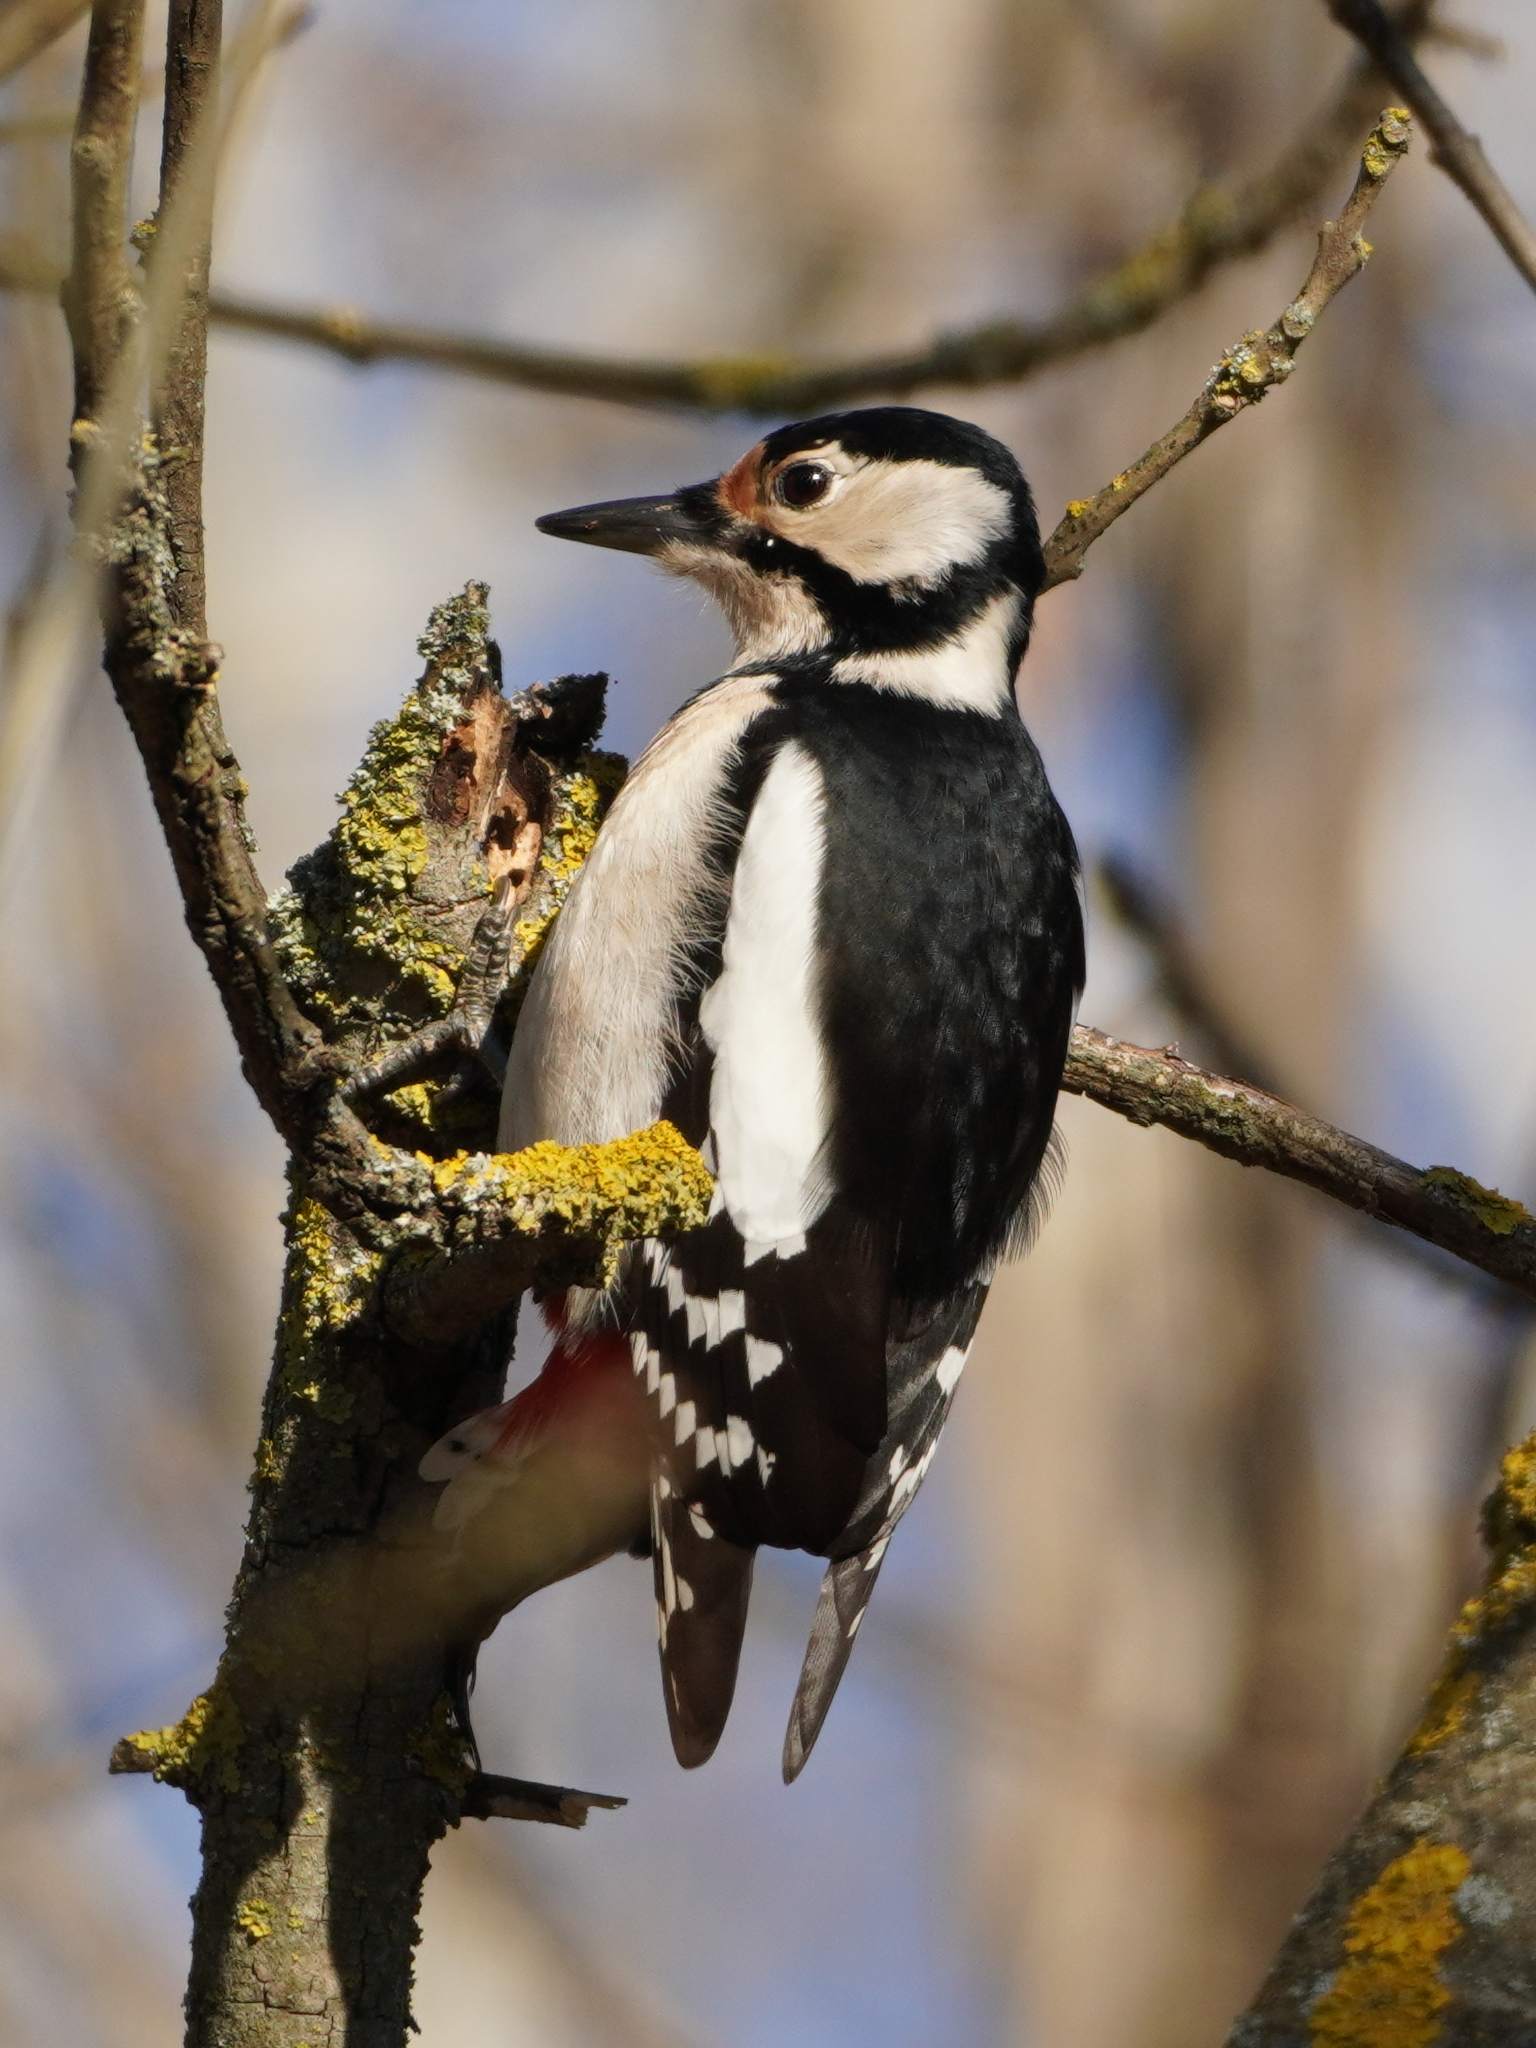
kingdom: Animalia
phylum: Chordata
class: Aves
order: Piciformes
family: Picidae
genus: Dendrocopos
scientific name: Dendrocopos major
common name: Great spotted woodpecker
